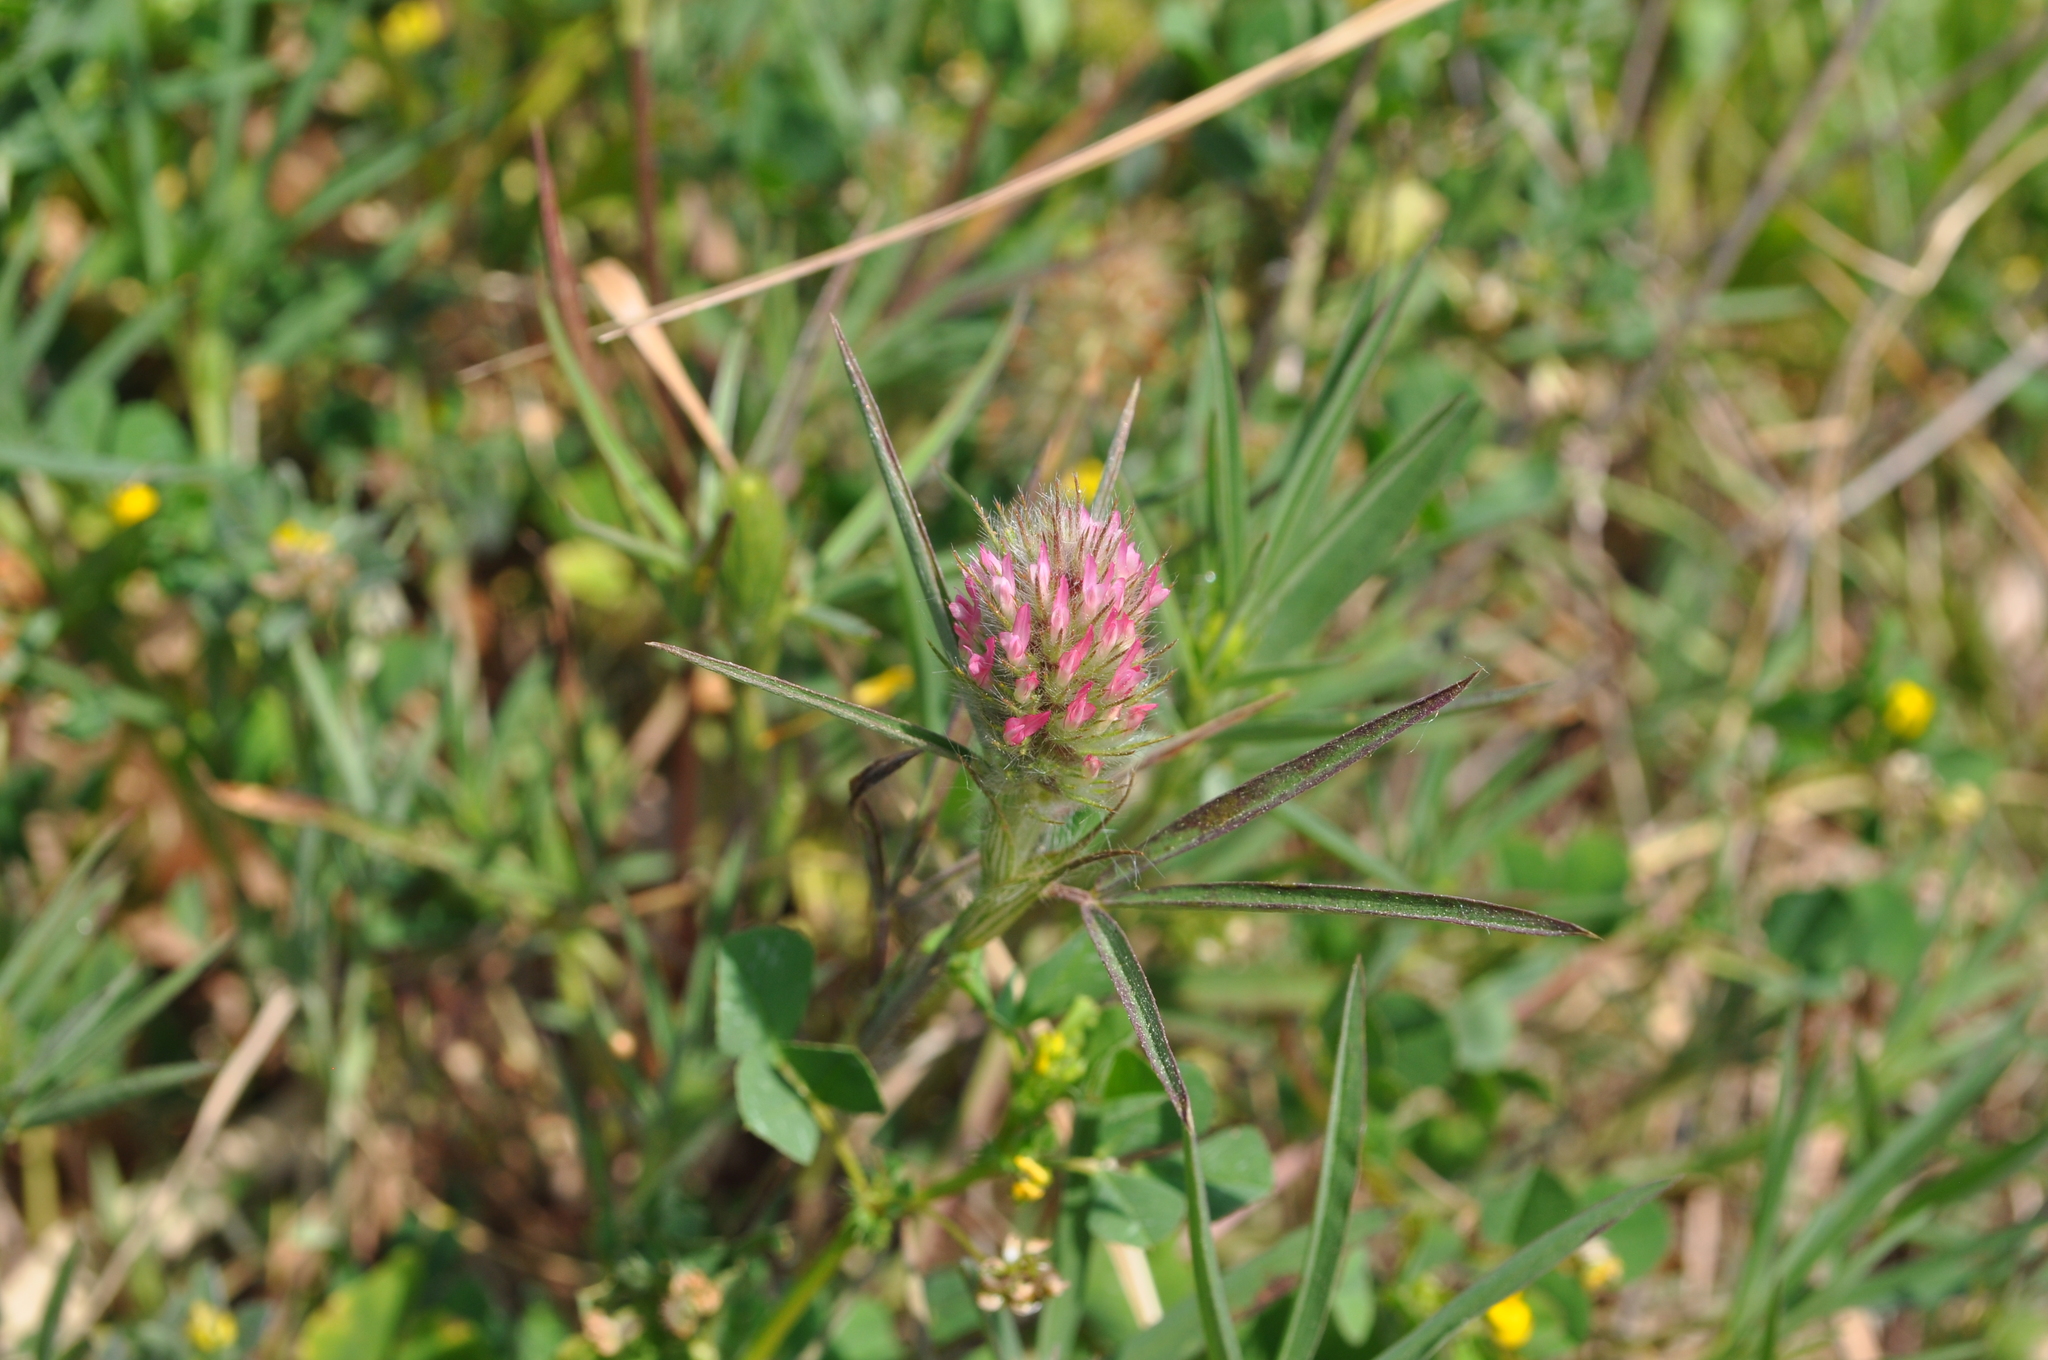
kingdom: Plantae
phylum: Tracheophyta
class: Magnoliopsida
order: Fabales
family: Fabaceae
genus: Trifolium
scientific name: Trifolium angustifolium
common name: Narrow clover
